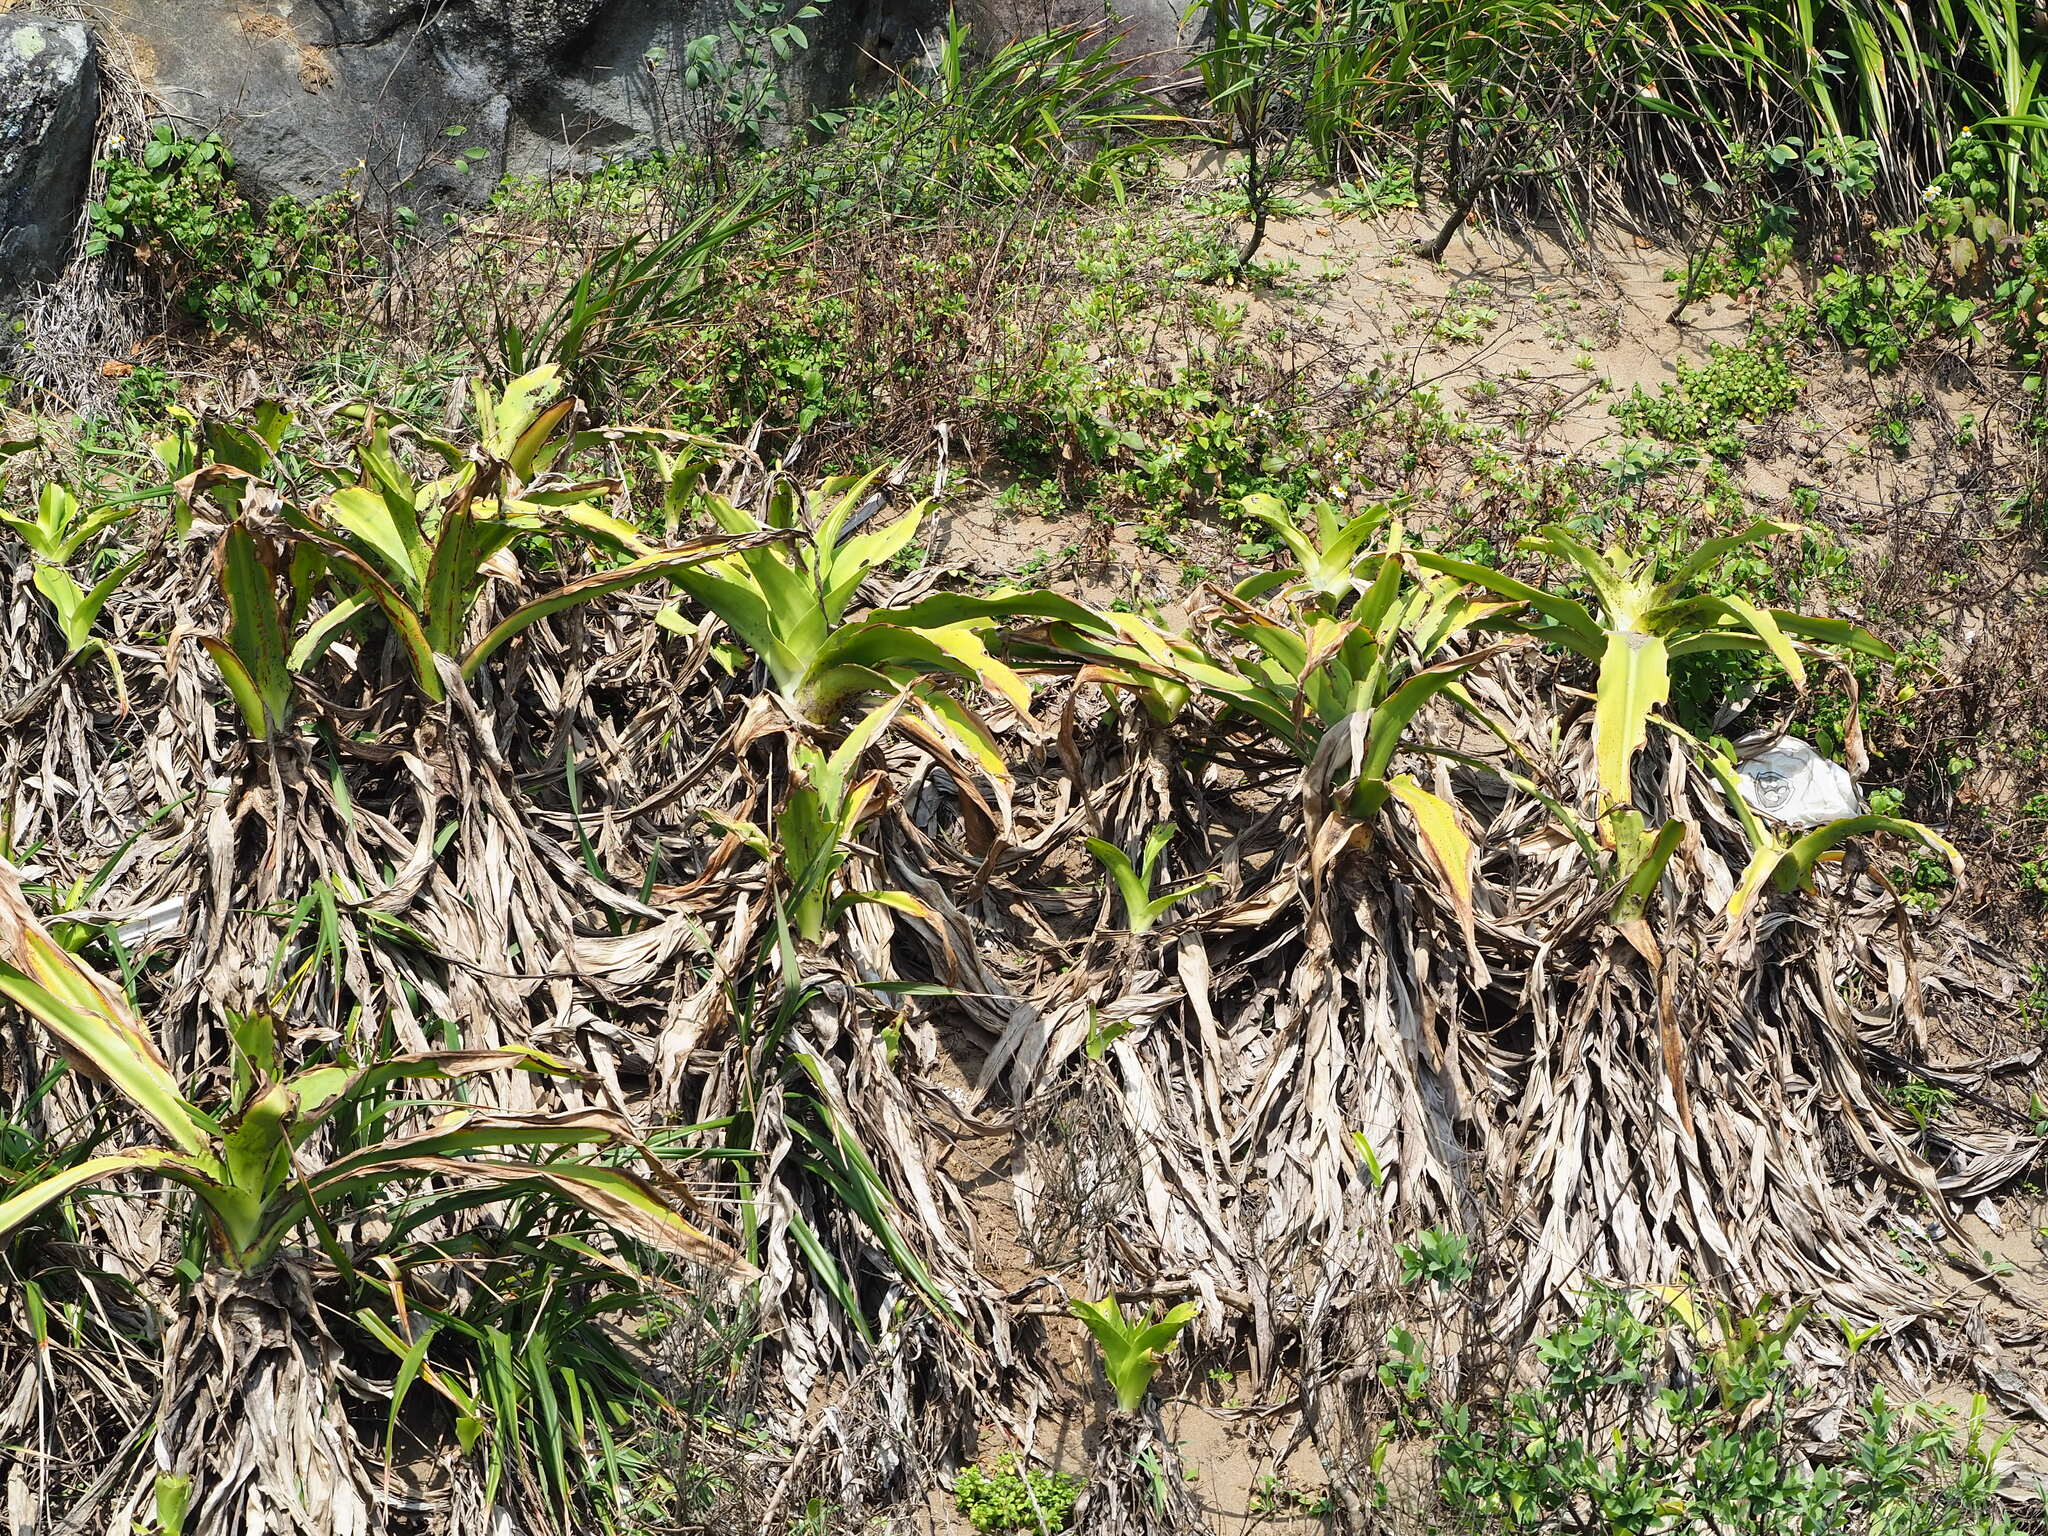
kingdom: Plantae
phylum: Tracheophyta
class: Liliopsida
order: Asparagales
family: Amaryllidaceae
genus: Crinum
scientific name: Crinum asiaticum
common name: Poisonbulb
